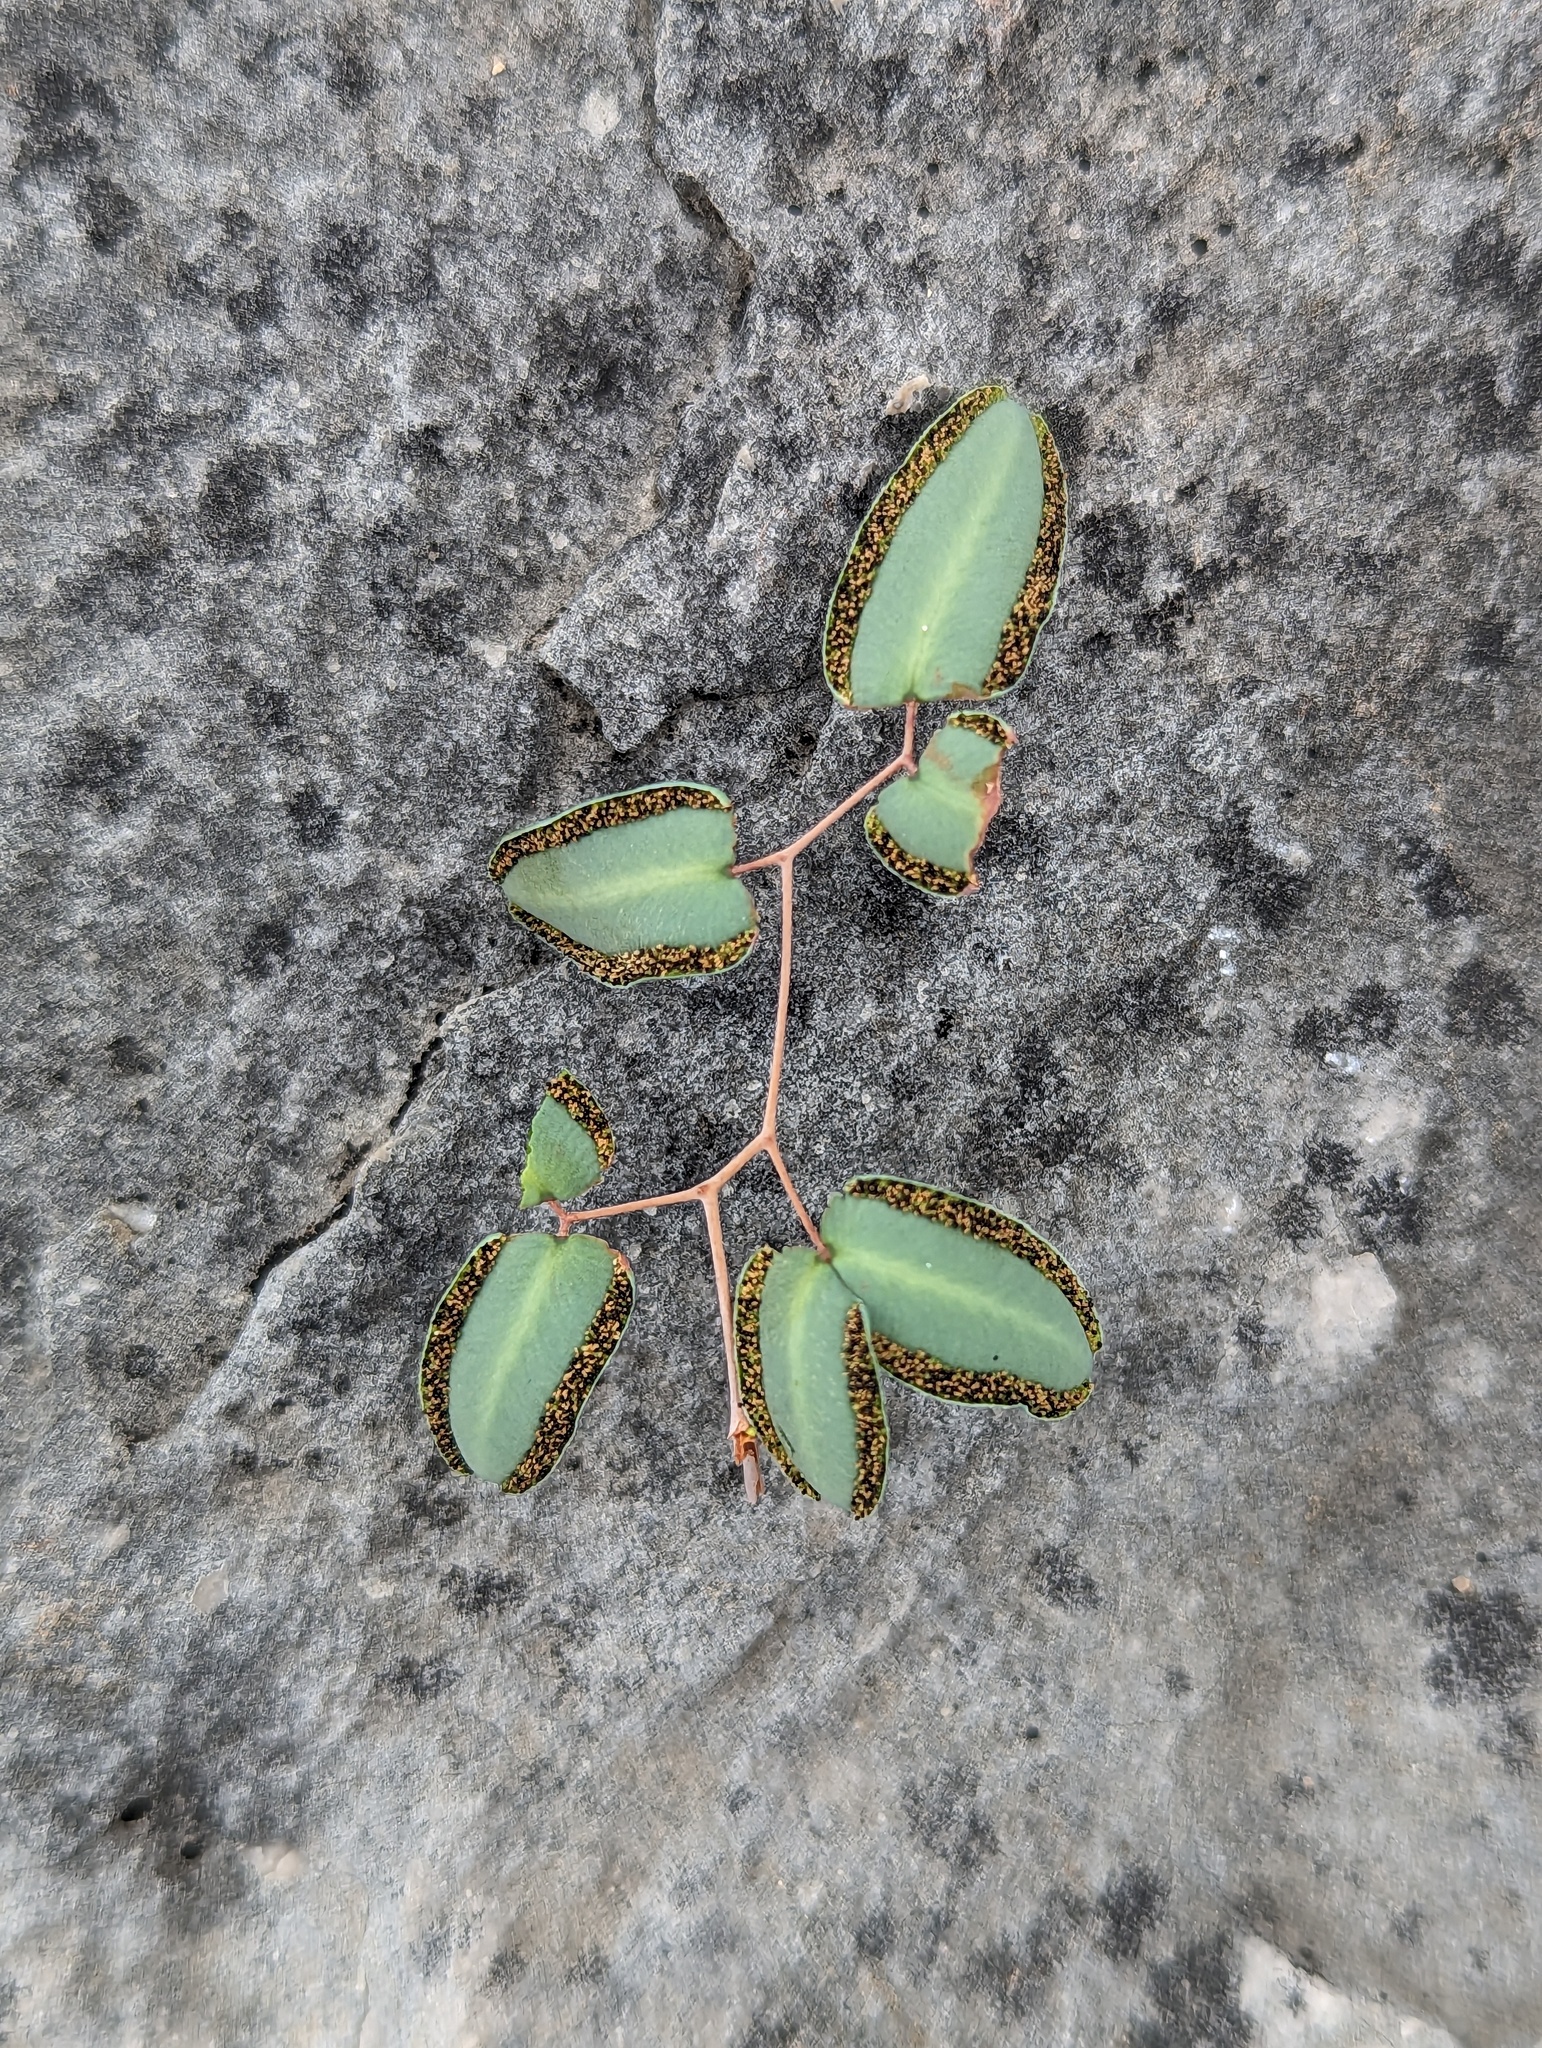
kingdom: Plantae
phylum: Tracheophyta
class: Polypodiopsida
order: Polypodiales
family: Pteridaceae
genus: Pellaea
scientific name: Pellaea ovata
